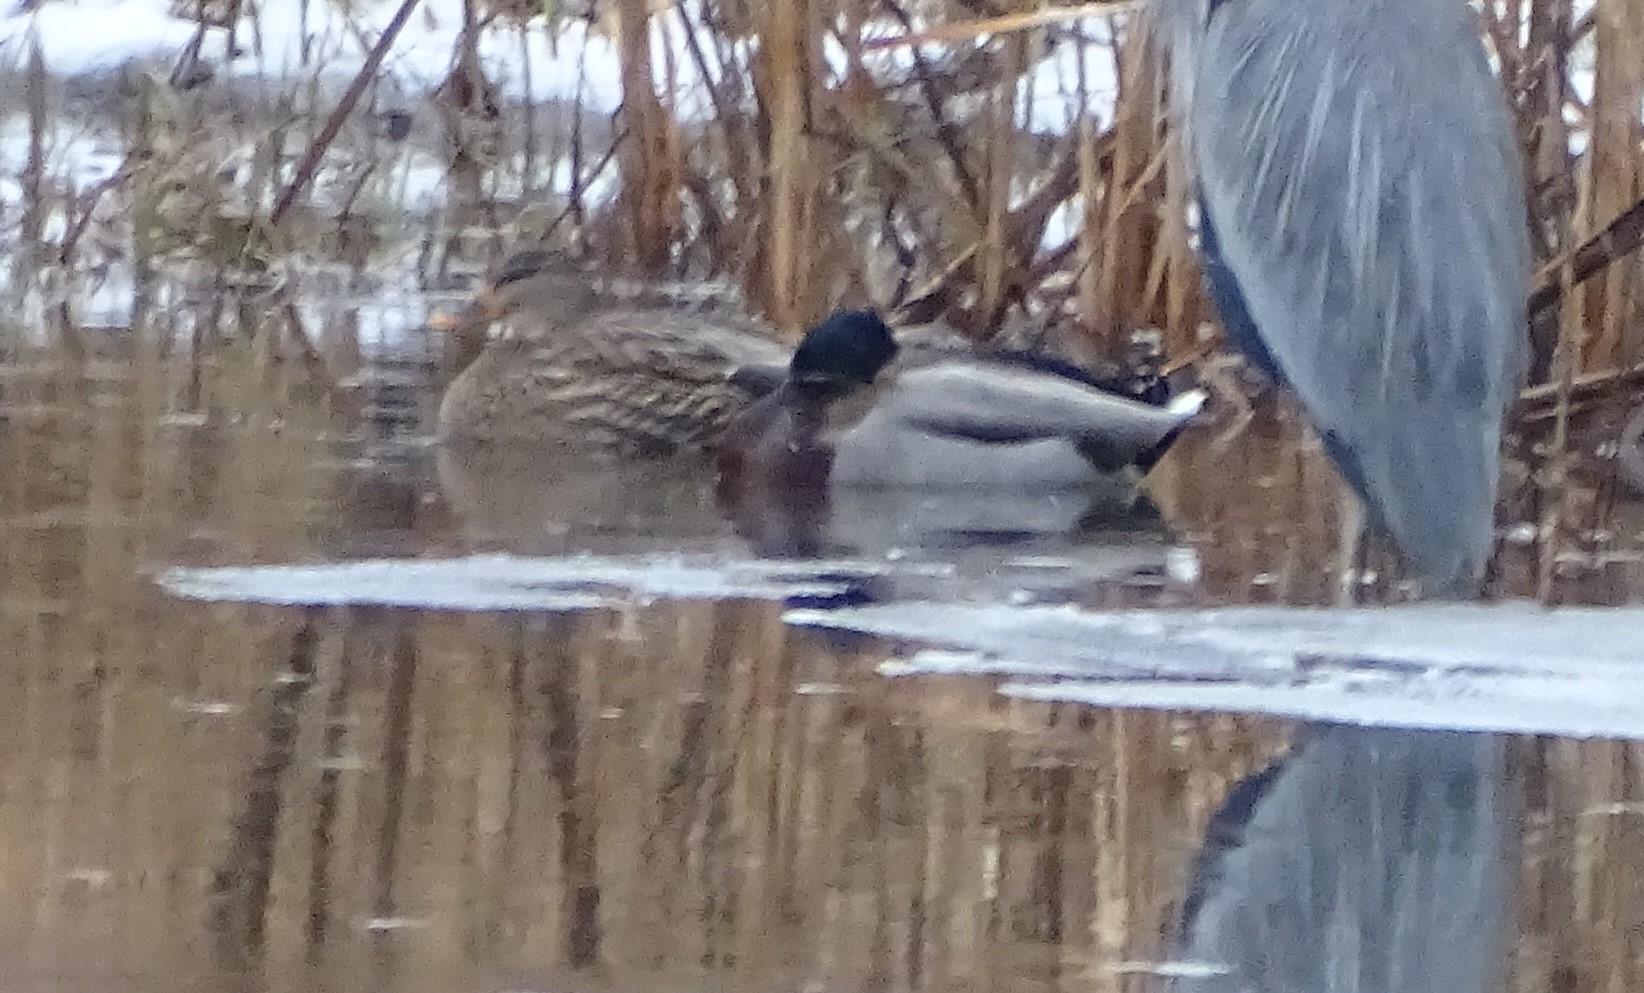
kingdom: Animalia
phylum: Chordata
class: Aves
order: Anseriformes
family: Anatidae
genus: Anas
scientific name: Anas platyrhynchos
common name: Mallard
